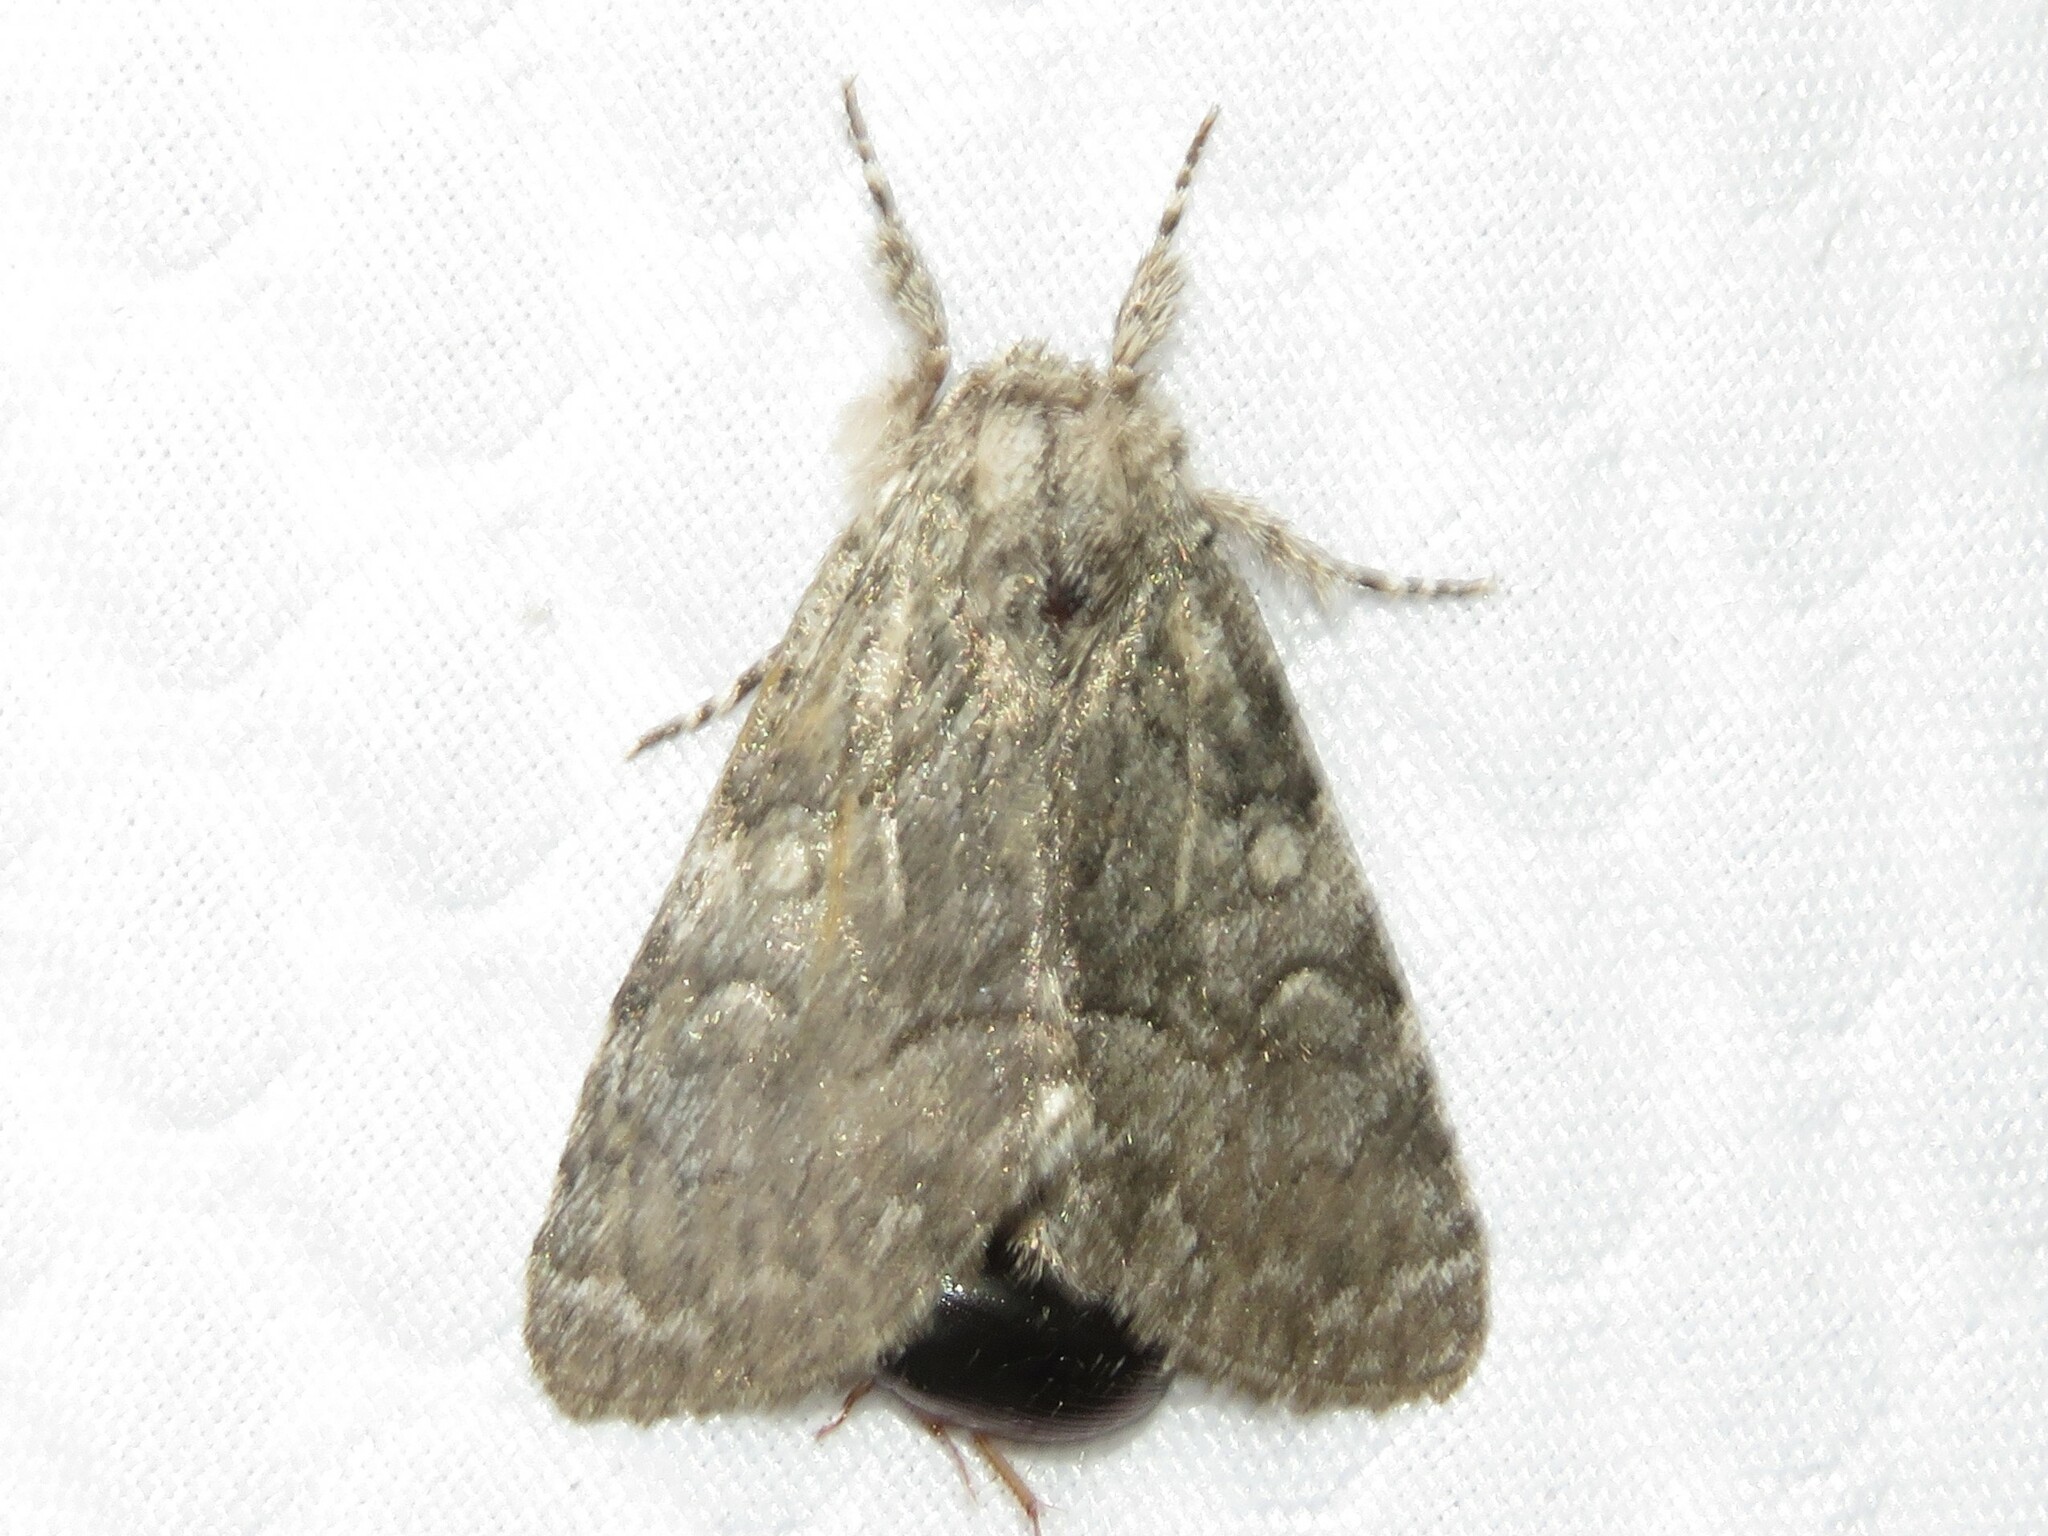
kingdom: Animalia
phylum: Arthropoda
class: Insecta
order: Lepidoptera
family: Noctuidae
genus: Raphia
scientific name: Raphia frater
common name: Brother
